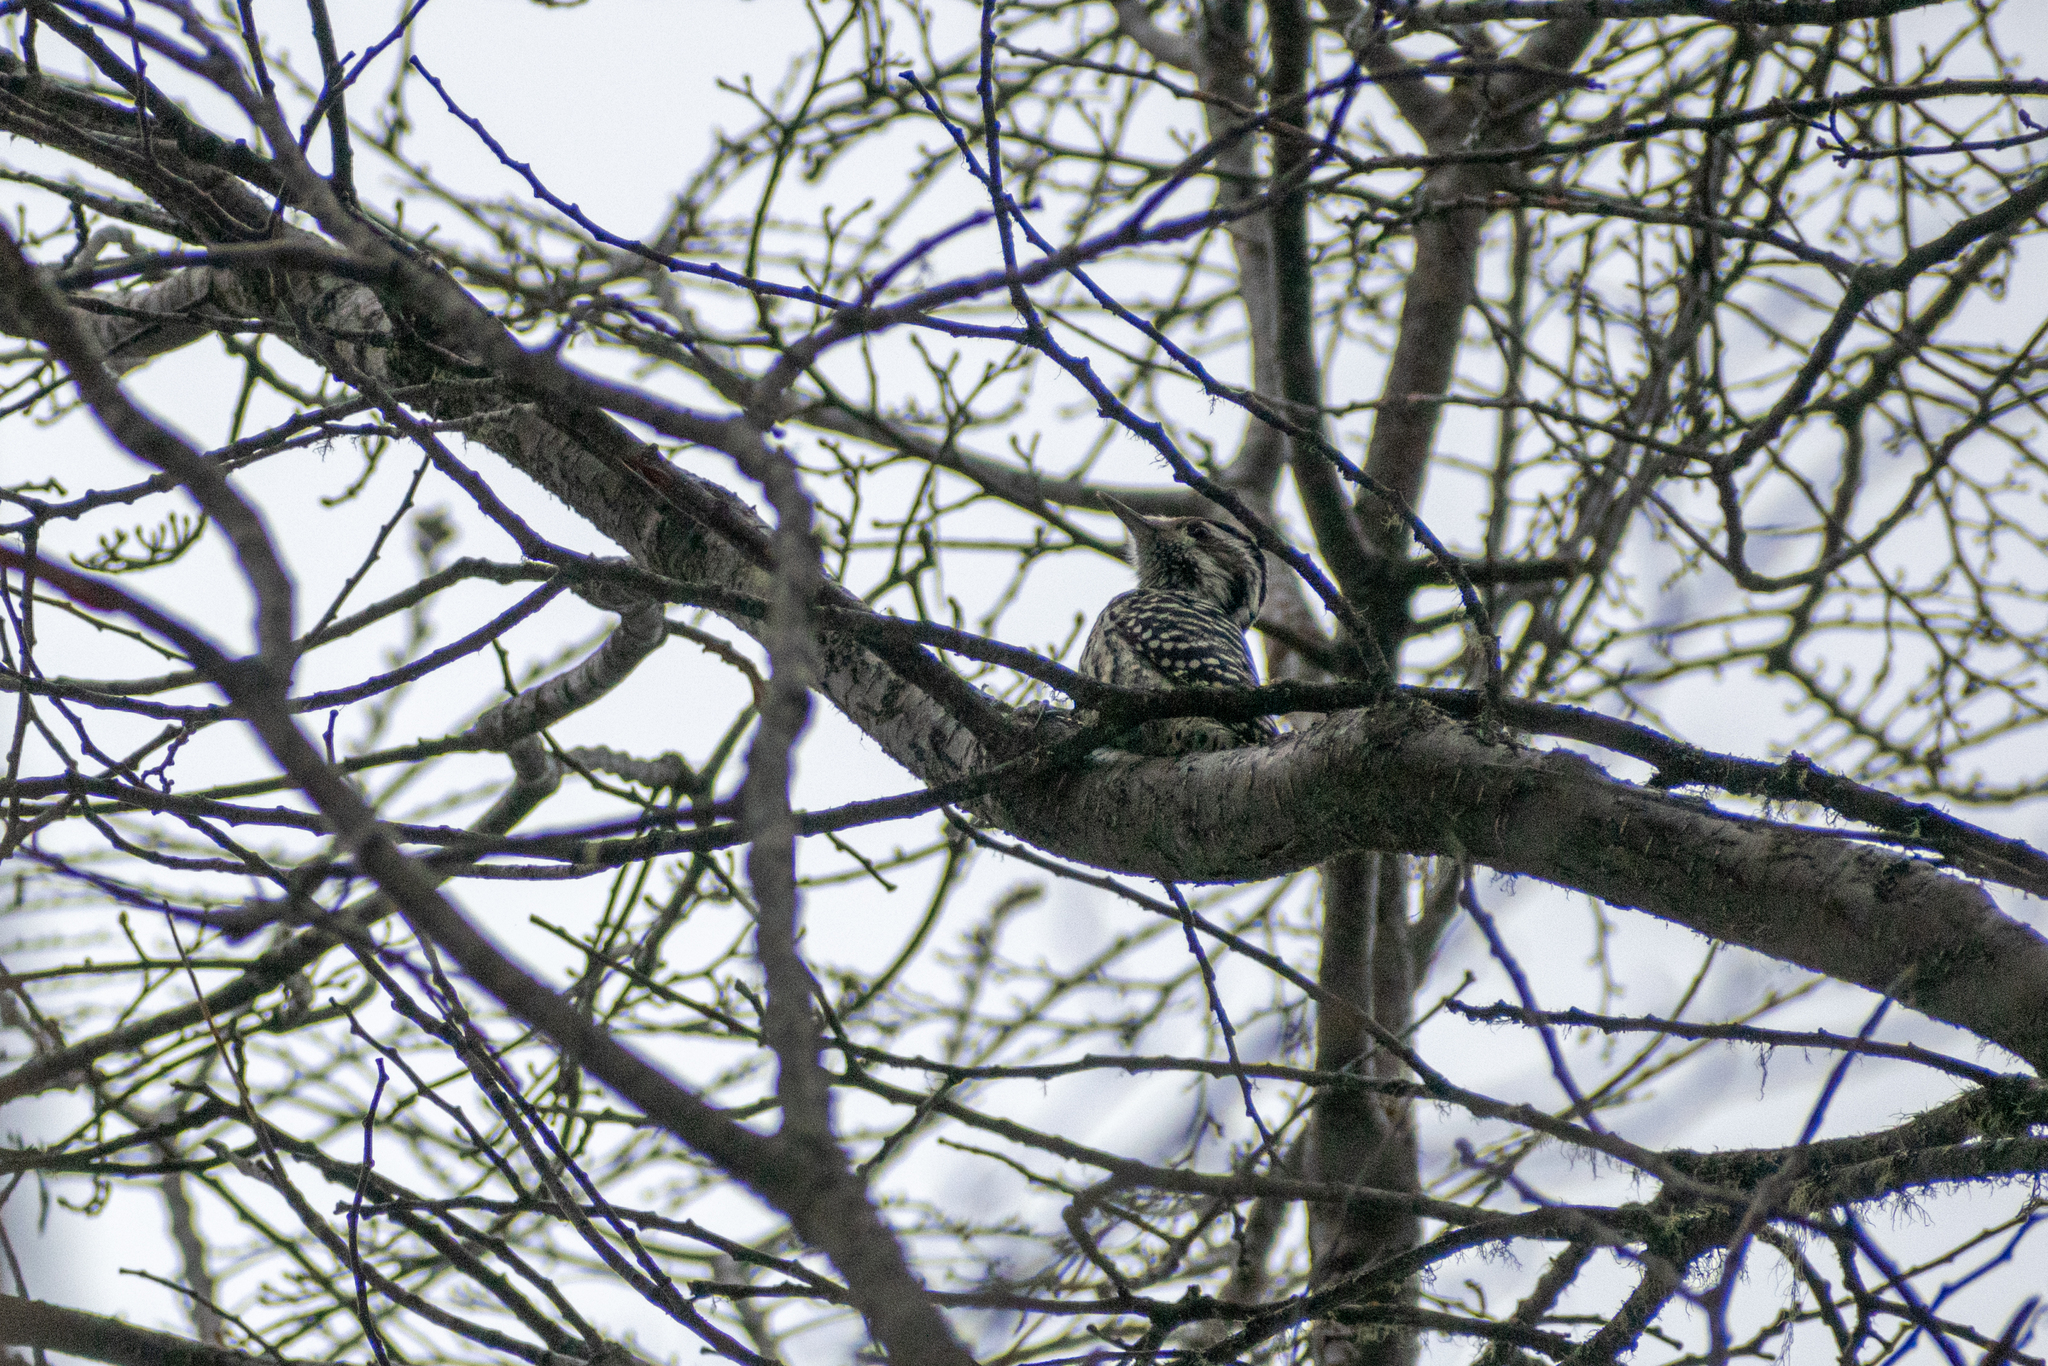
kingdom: Animalia
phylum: Chordata
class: Aves
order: Piciformes
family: Picidae
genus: Veniliornis
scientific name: Veniliornis lignarius
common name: Striped woodpecker
